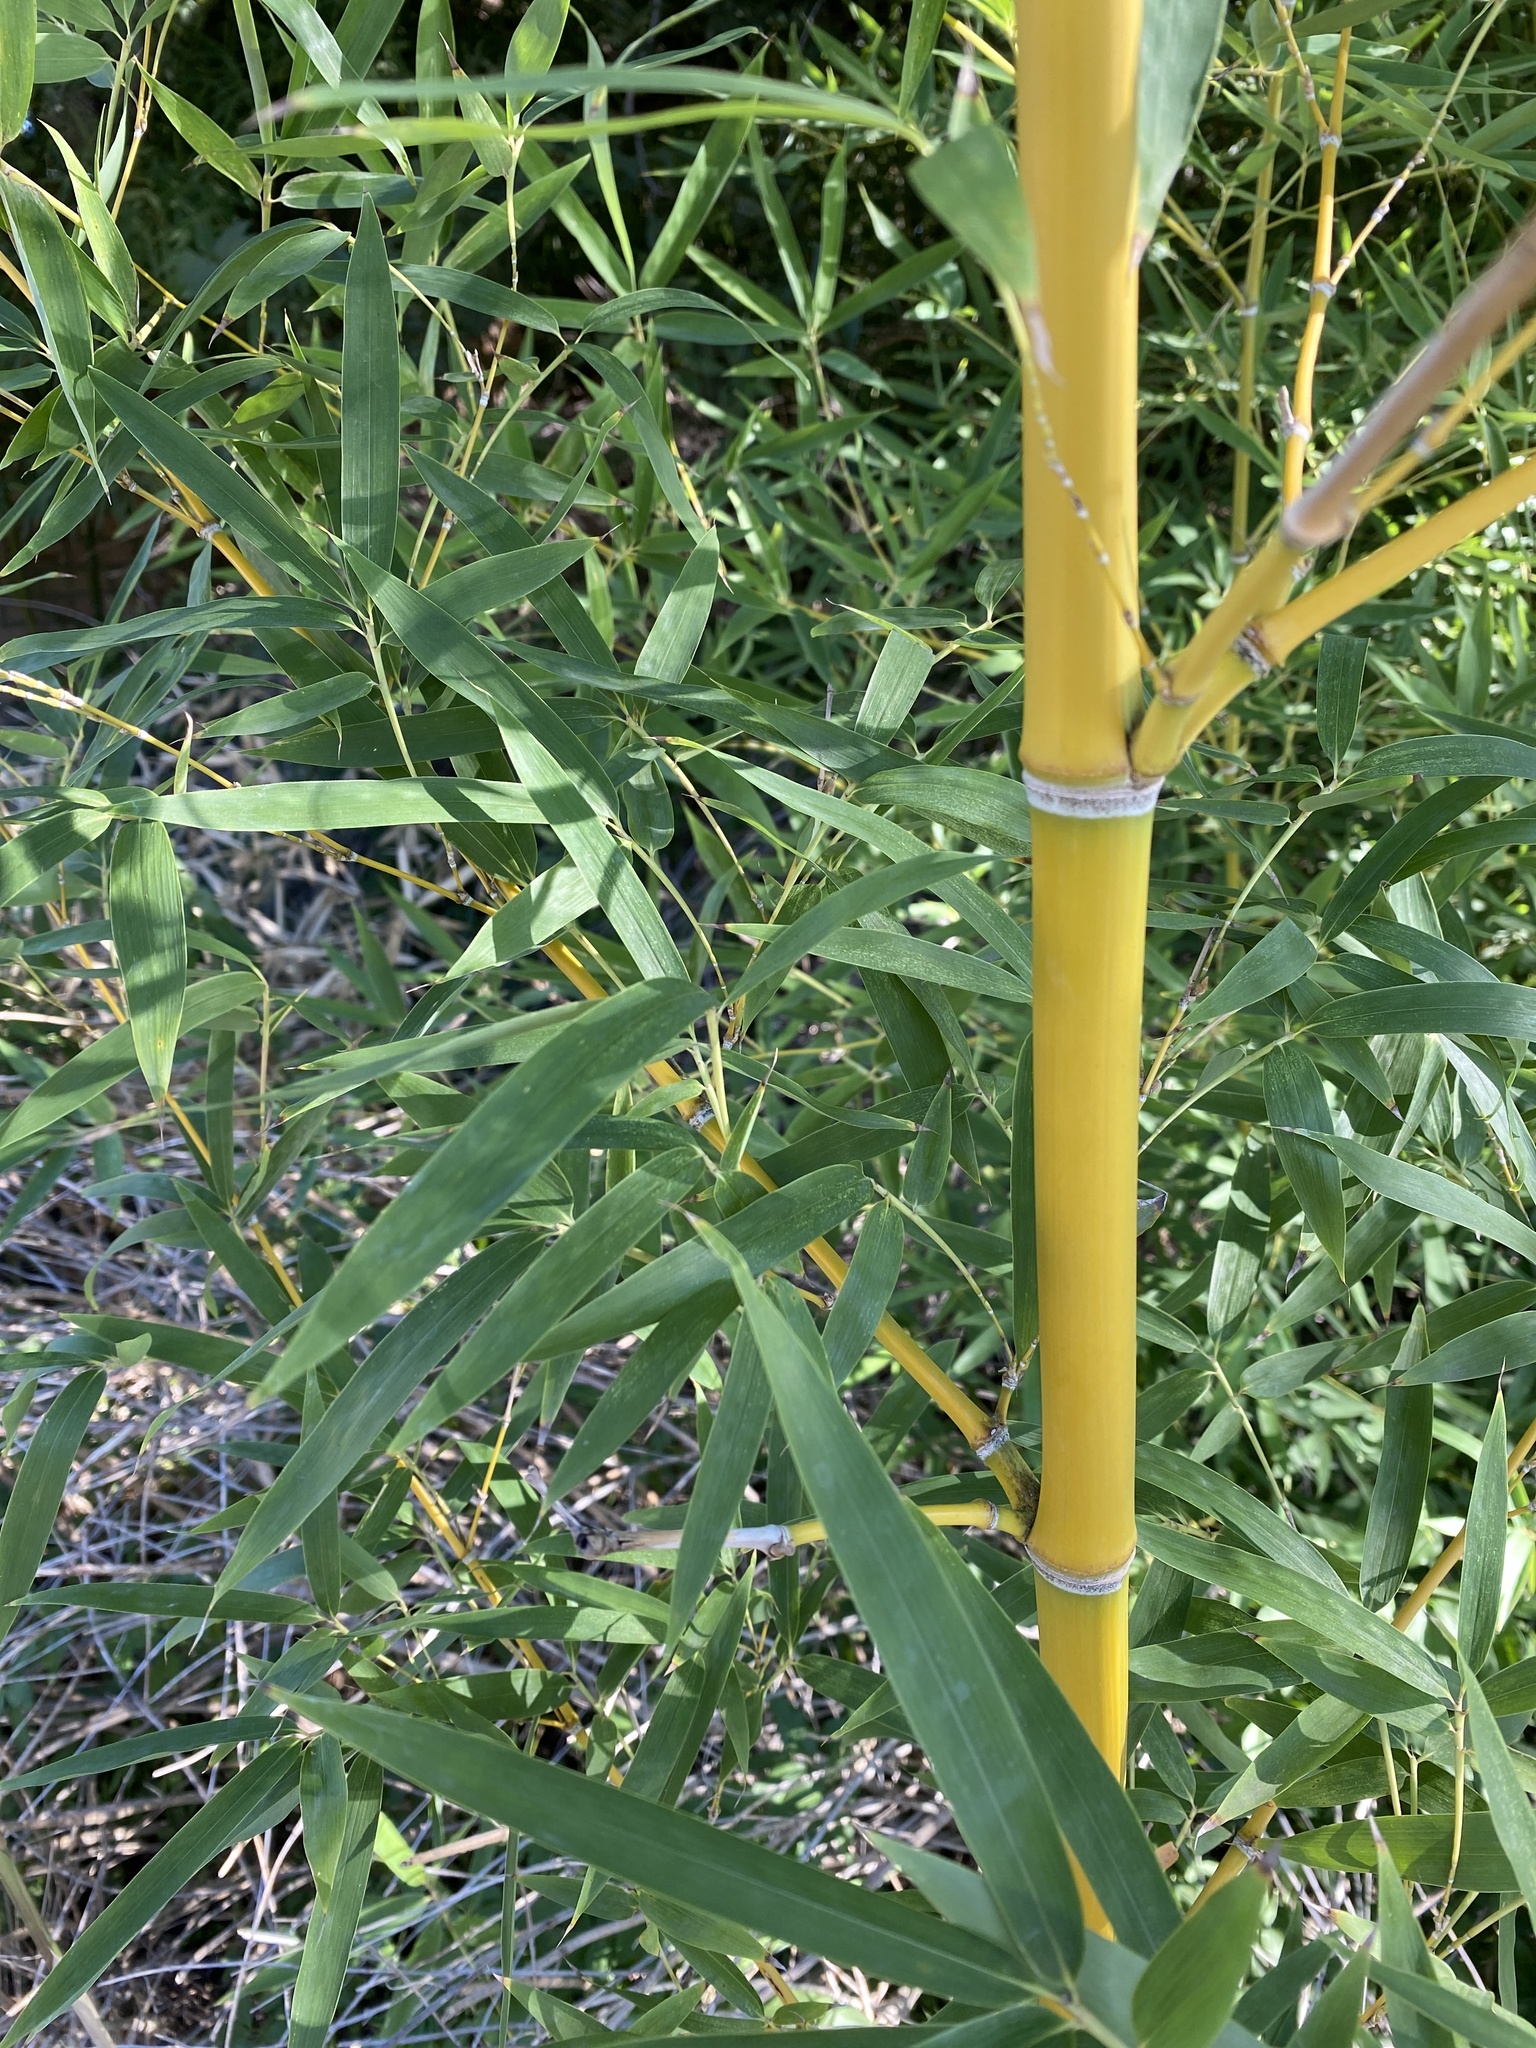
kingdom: Plantae
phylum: Tracheophyta
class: Liliopsida
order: Poales
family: Poaceae
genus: Phyllostachys
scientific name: Phyllostachys aurea
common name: Golden bamboo
